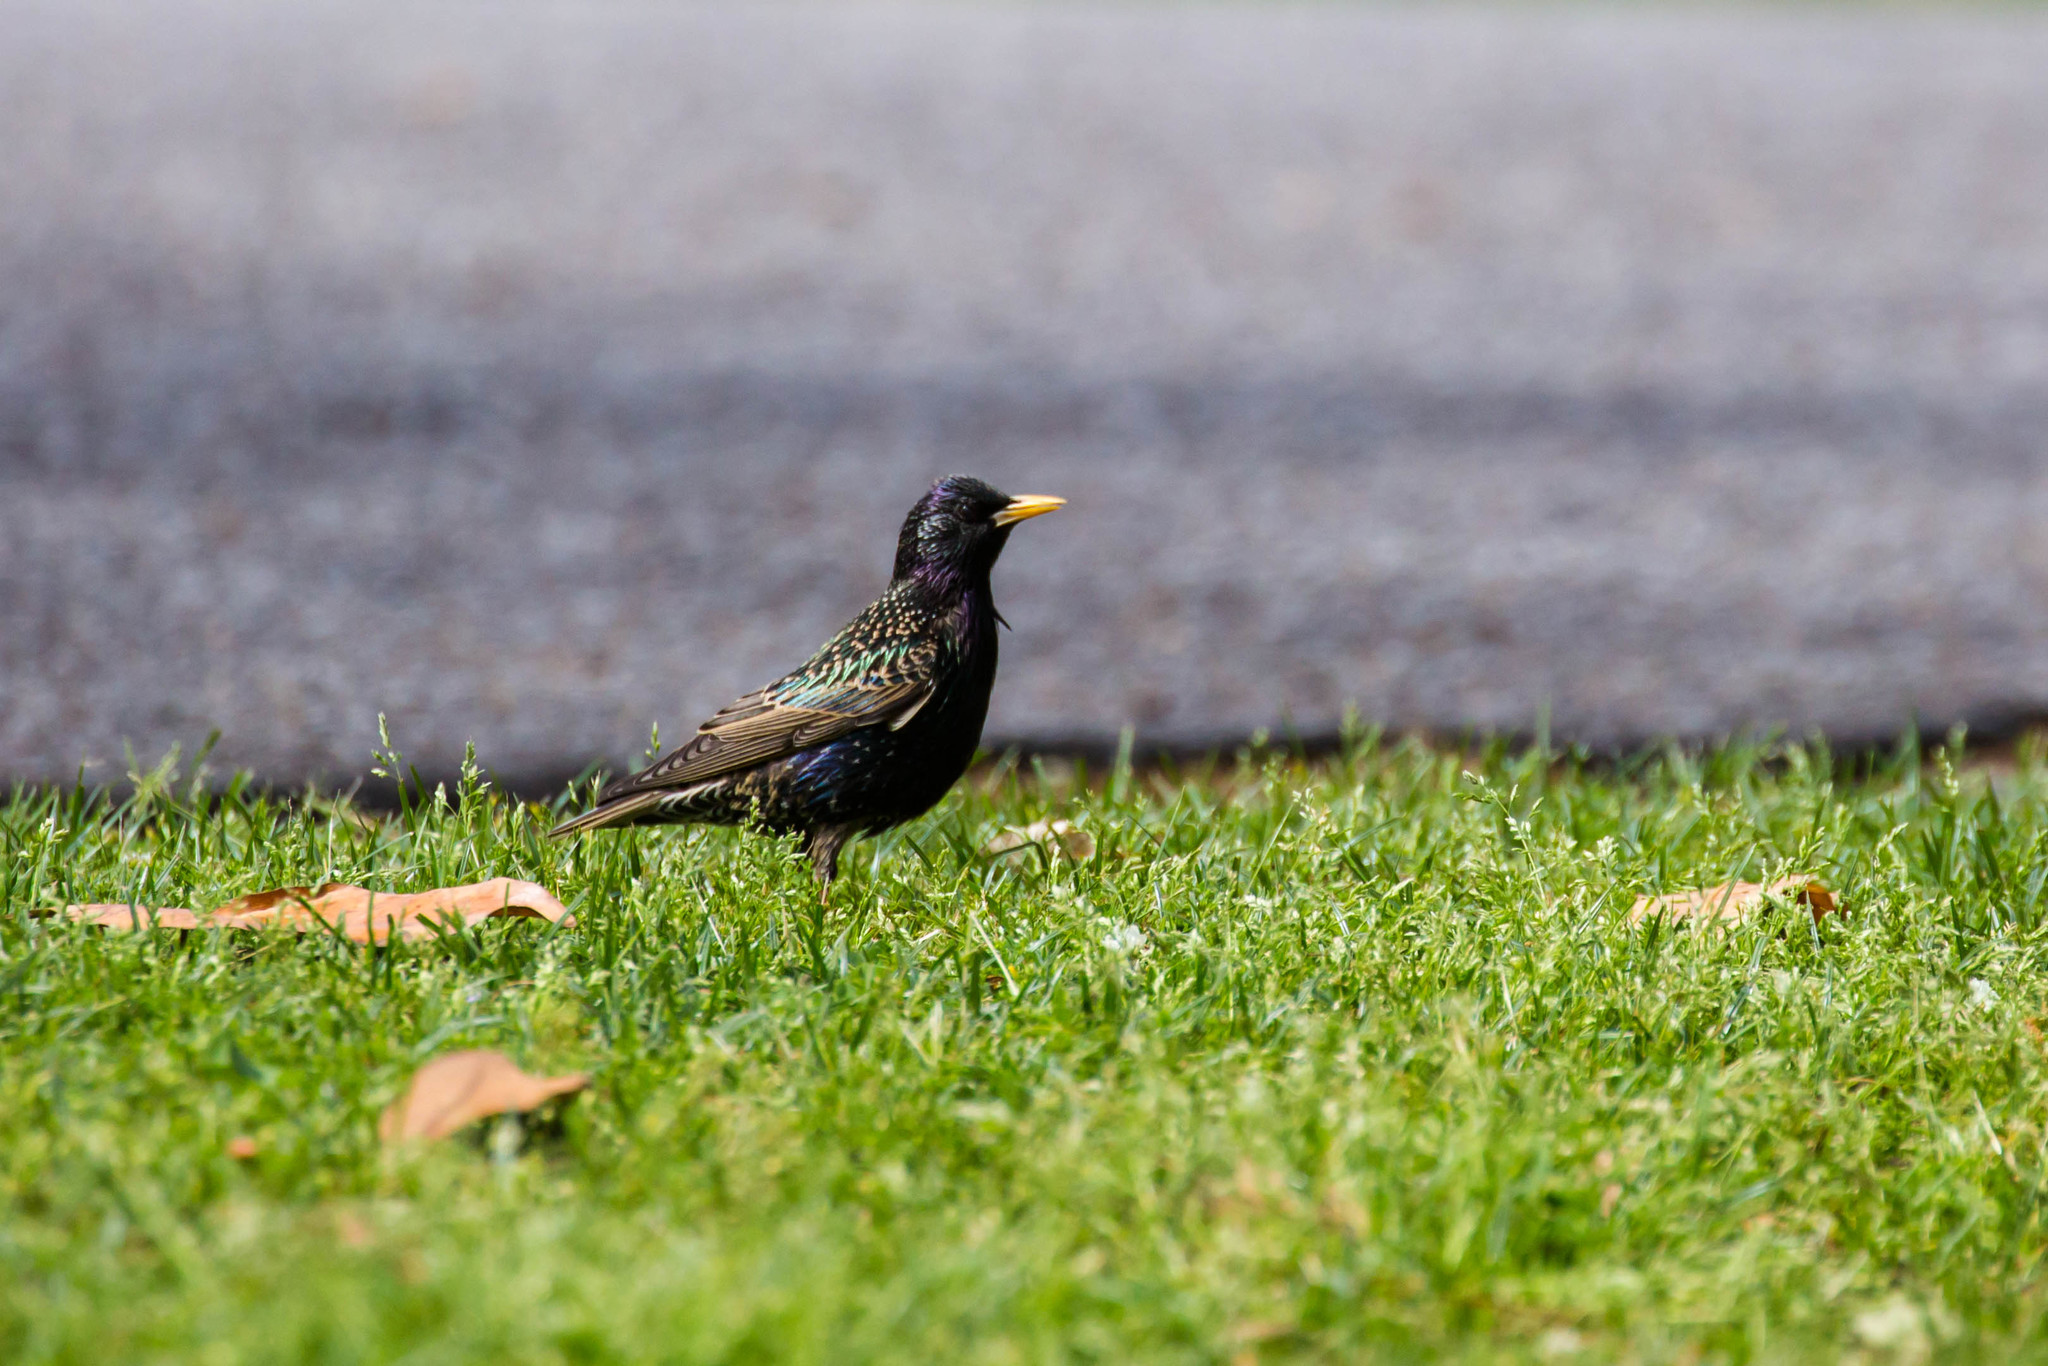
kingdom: Animalia
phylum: Chordata
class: Aves
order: Passeriformes
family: Sturnidae
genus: Sturnus
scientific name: Sturnus vulgaris
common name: Common starling
